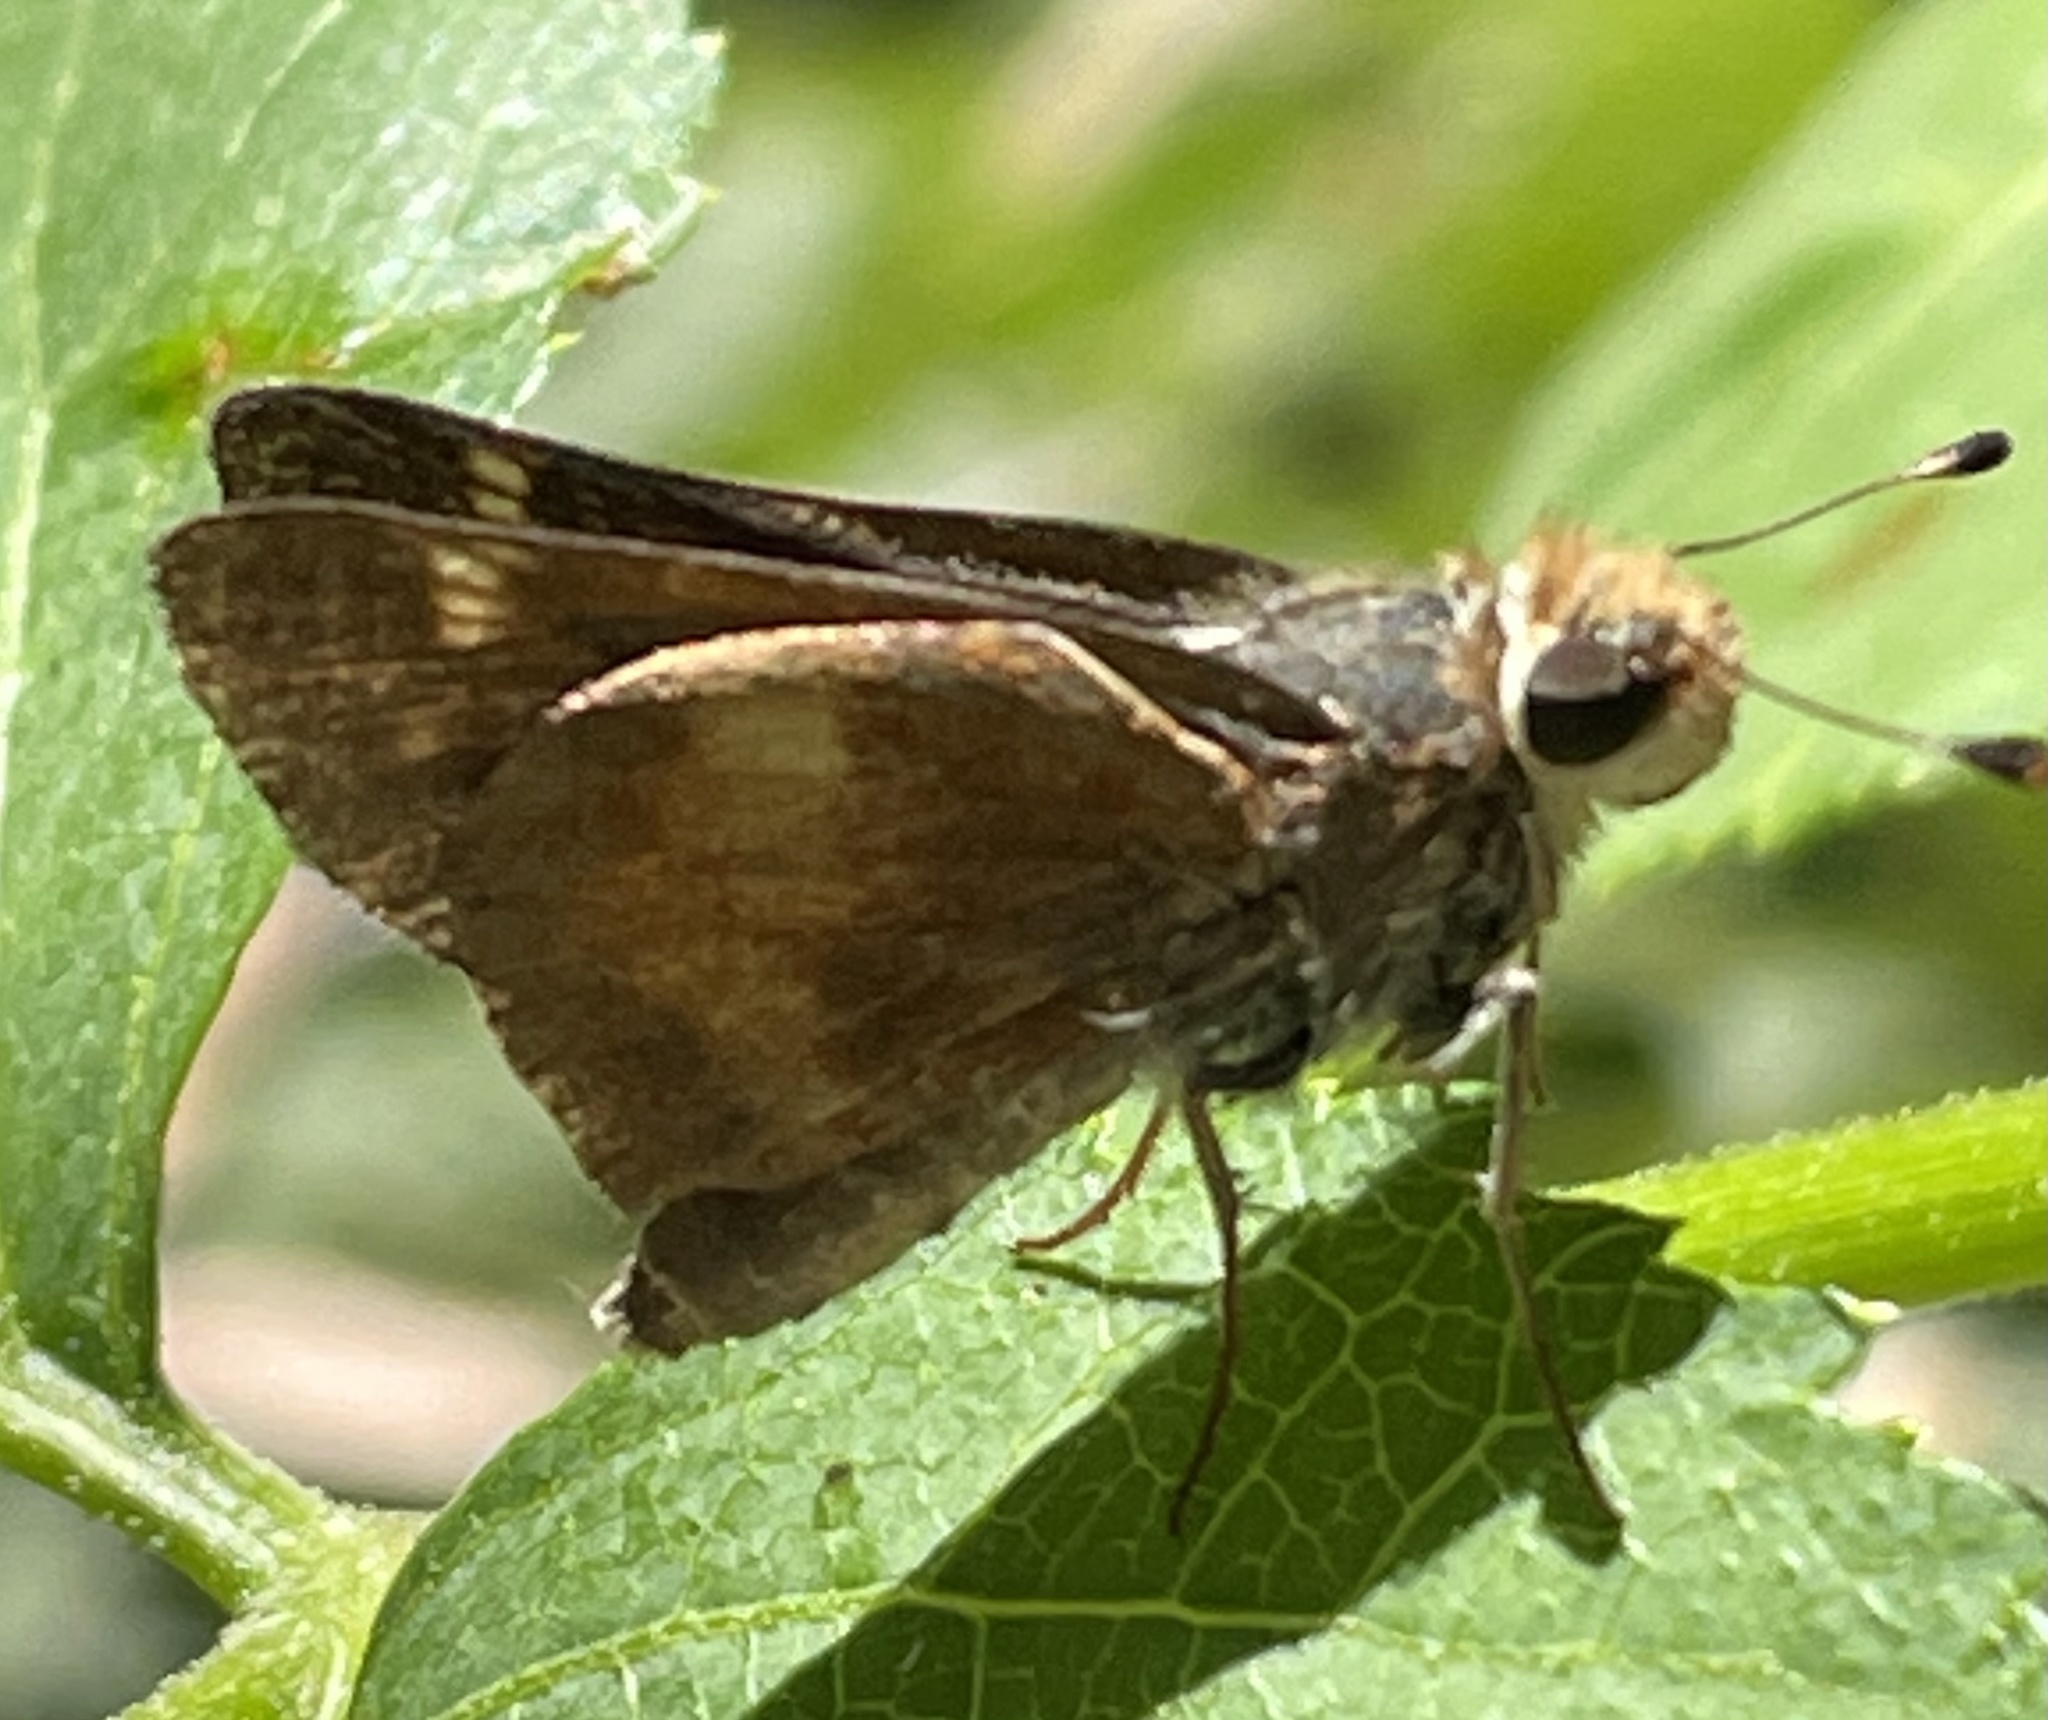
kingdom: Animalia
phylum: Arthropoda
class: Insecta
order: Lepidoptera
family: Hesperiidae
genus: Lon
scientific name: Lon melane
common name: Umber skipper
